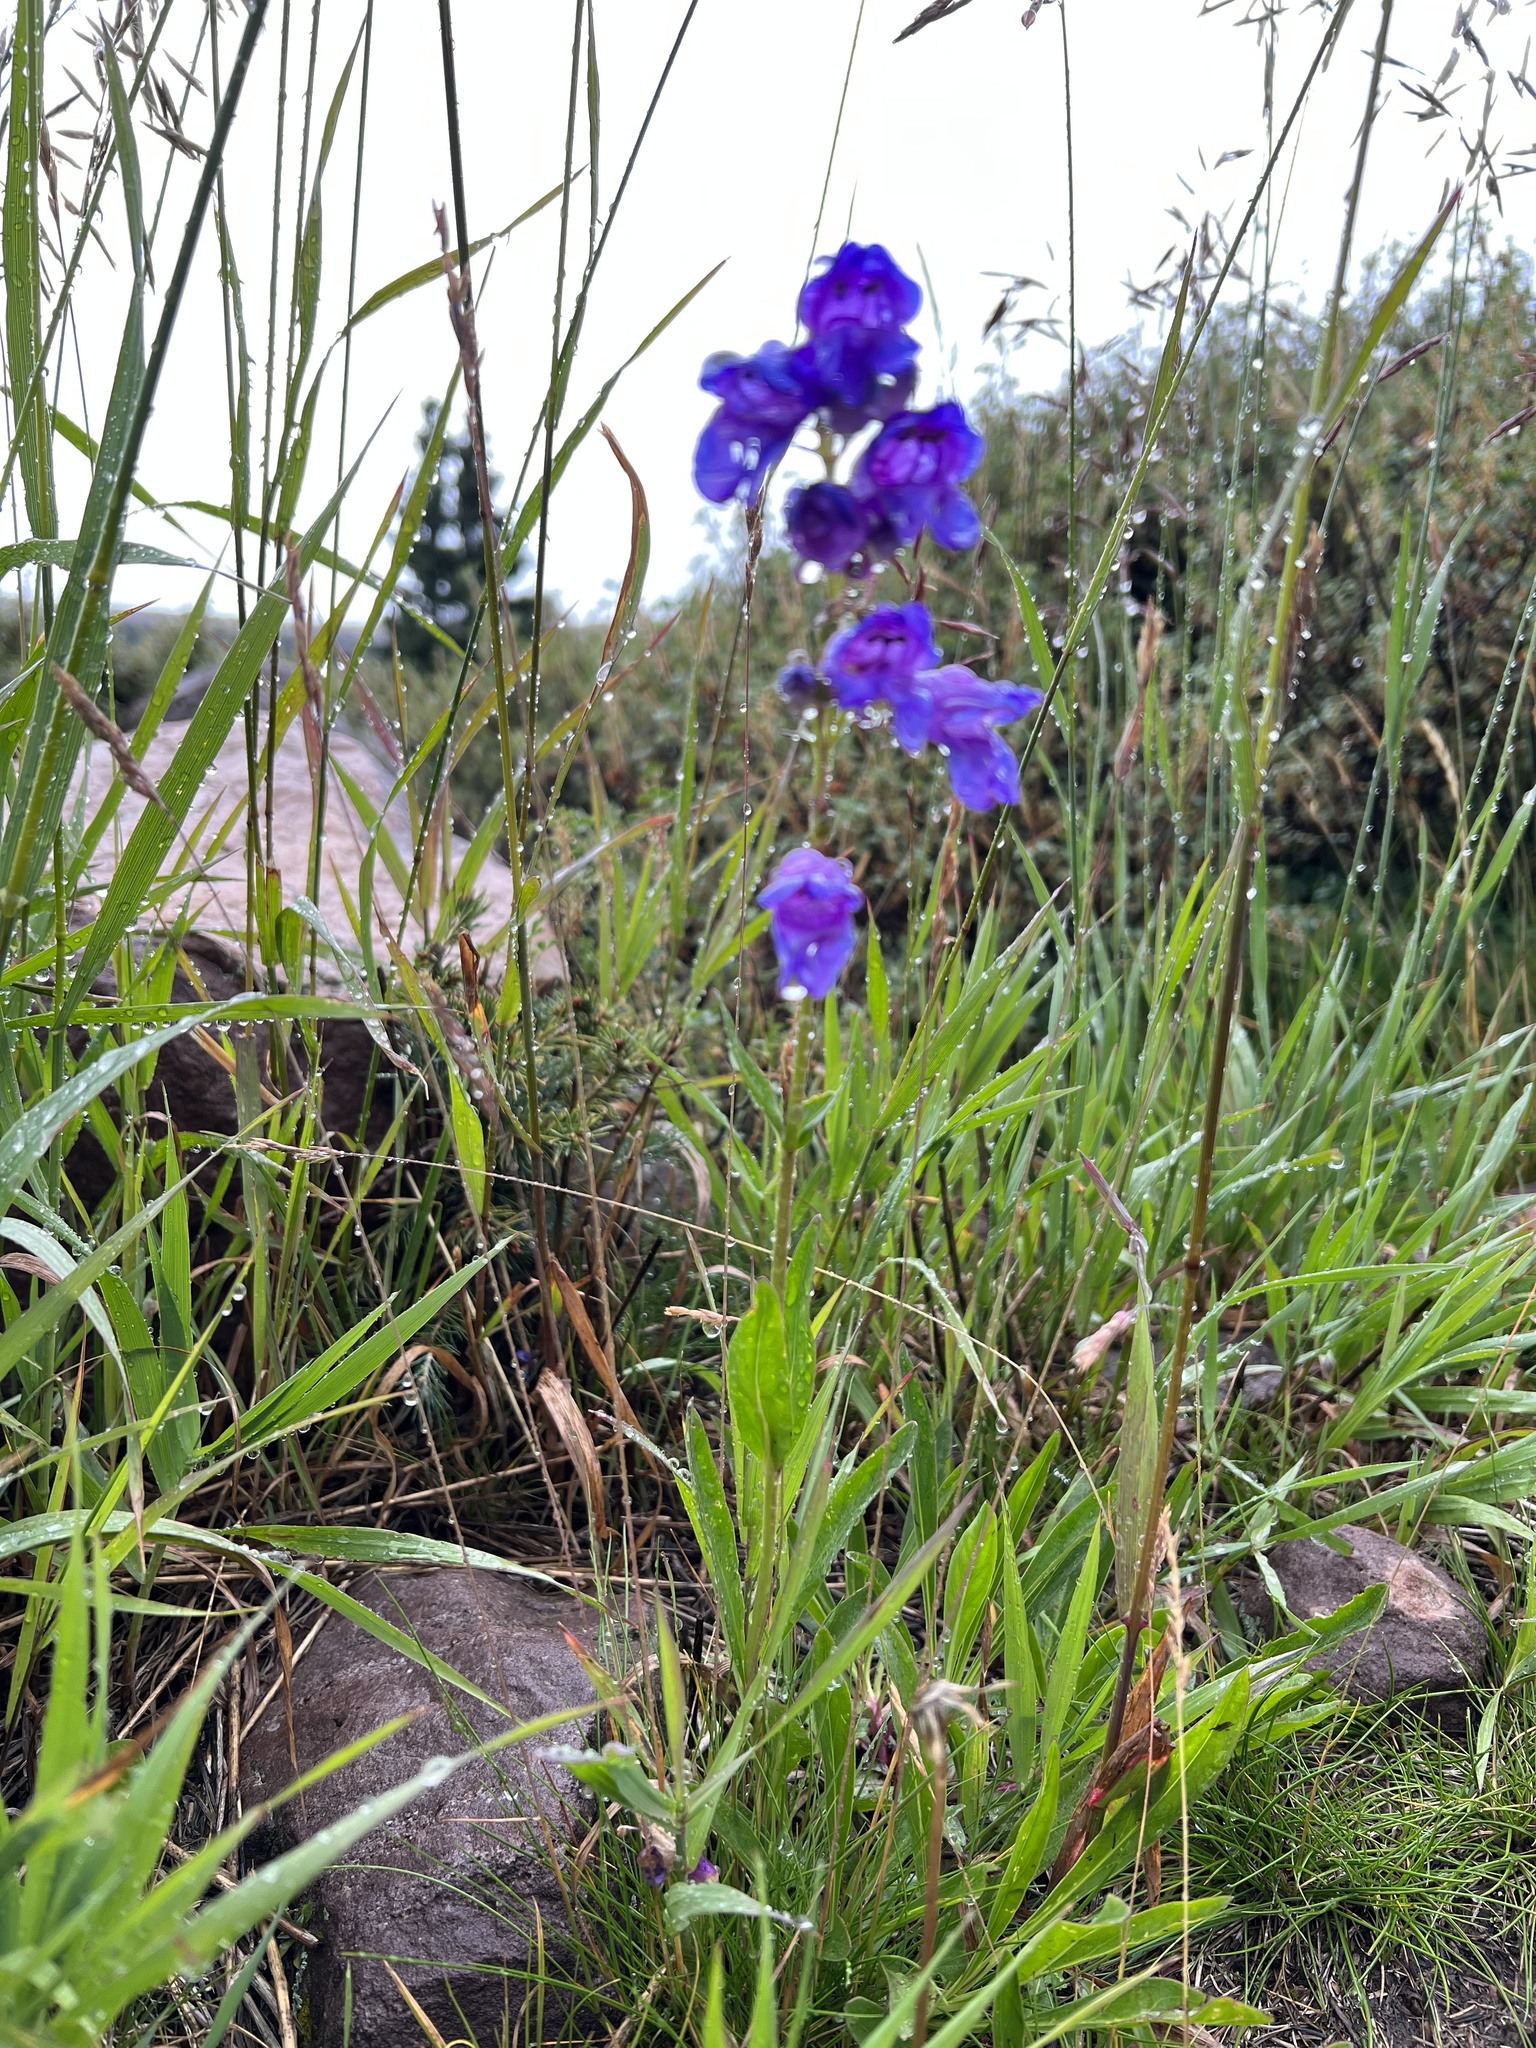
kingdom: Plantae
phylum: Tracheophyta
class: Magnoliopsida
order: Lamiales
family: Plantaginaceae
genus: Penstemon
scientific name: Penstemon strictus
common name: Rocky mountain penstemon
